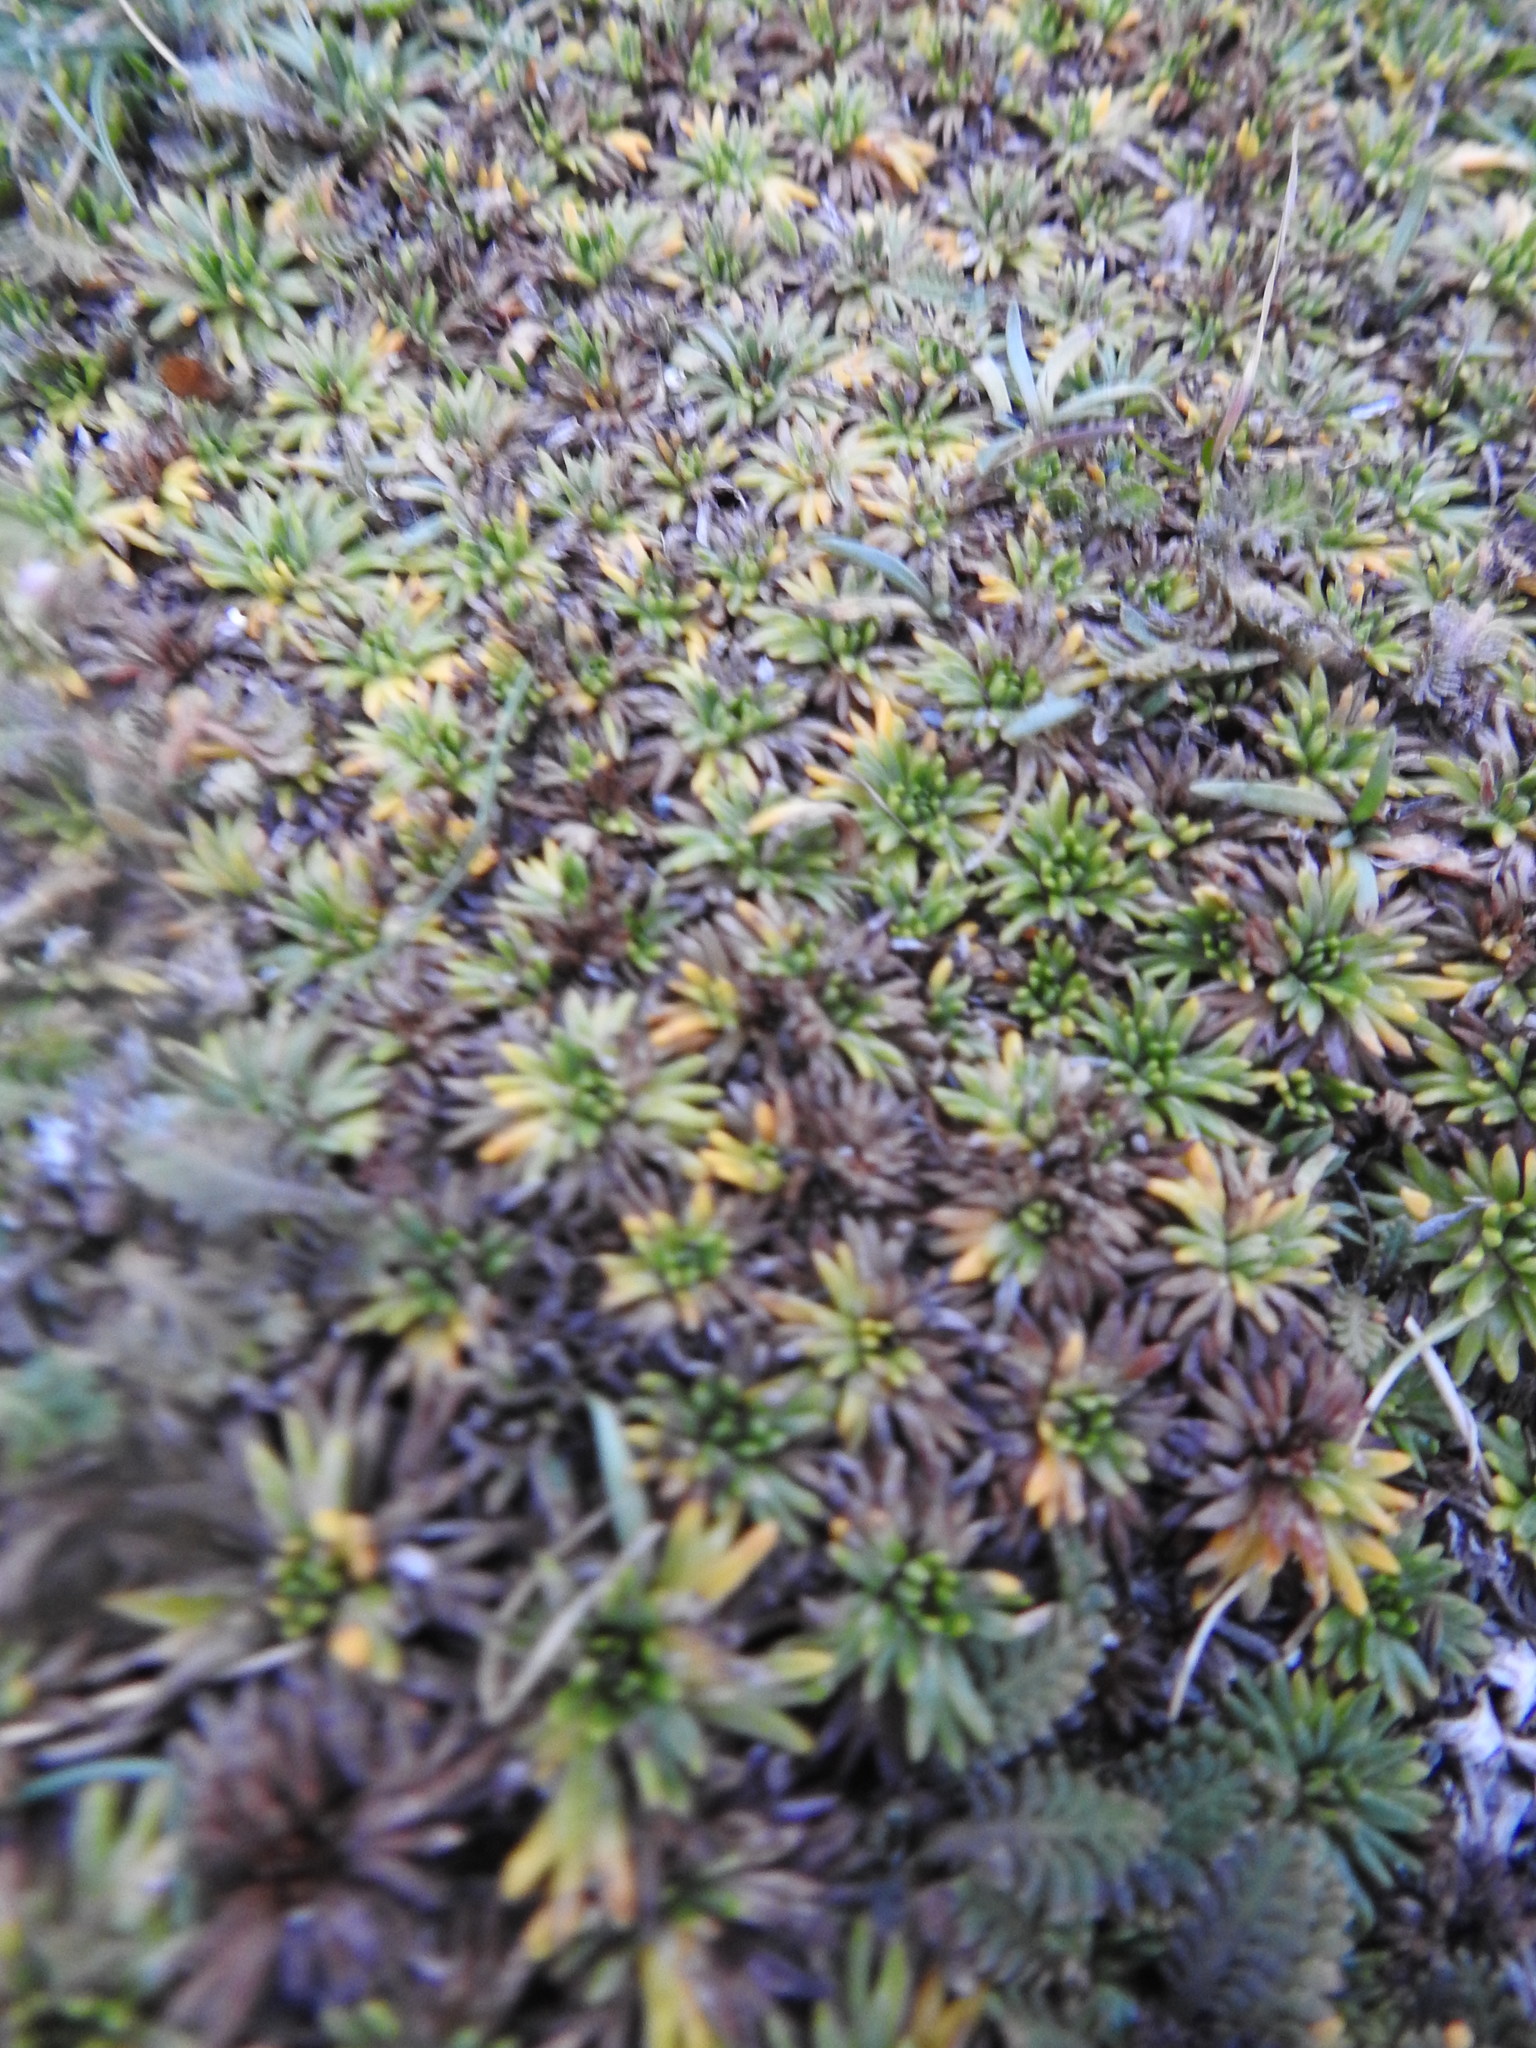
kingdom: Plantae
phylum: Tracheophyta
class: Magnoliopsida
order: Apiales
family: Apiaceae
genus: Azorella
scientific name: Azorella trifurcata
